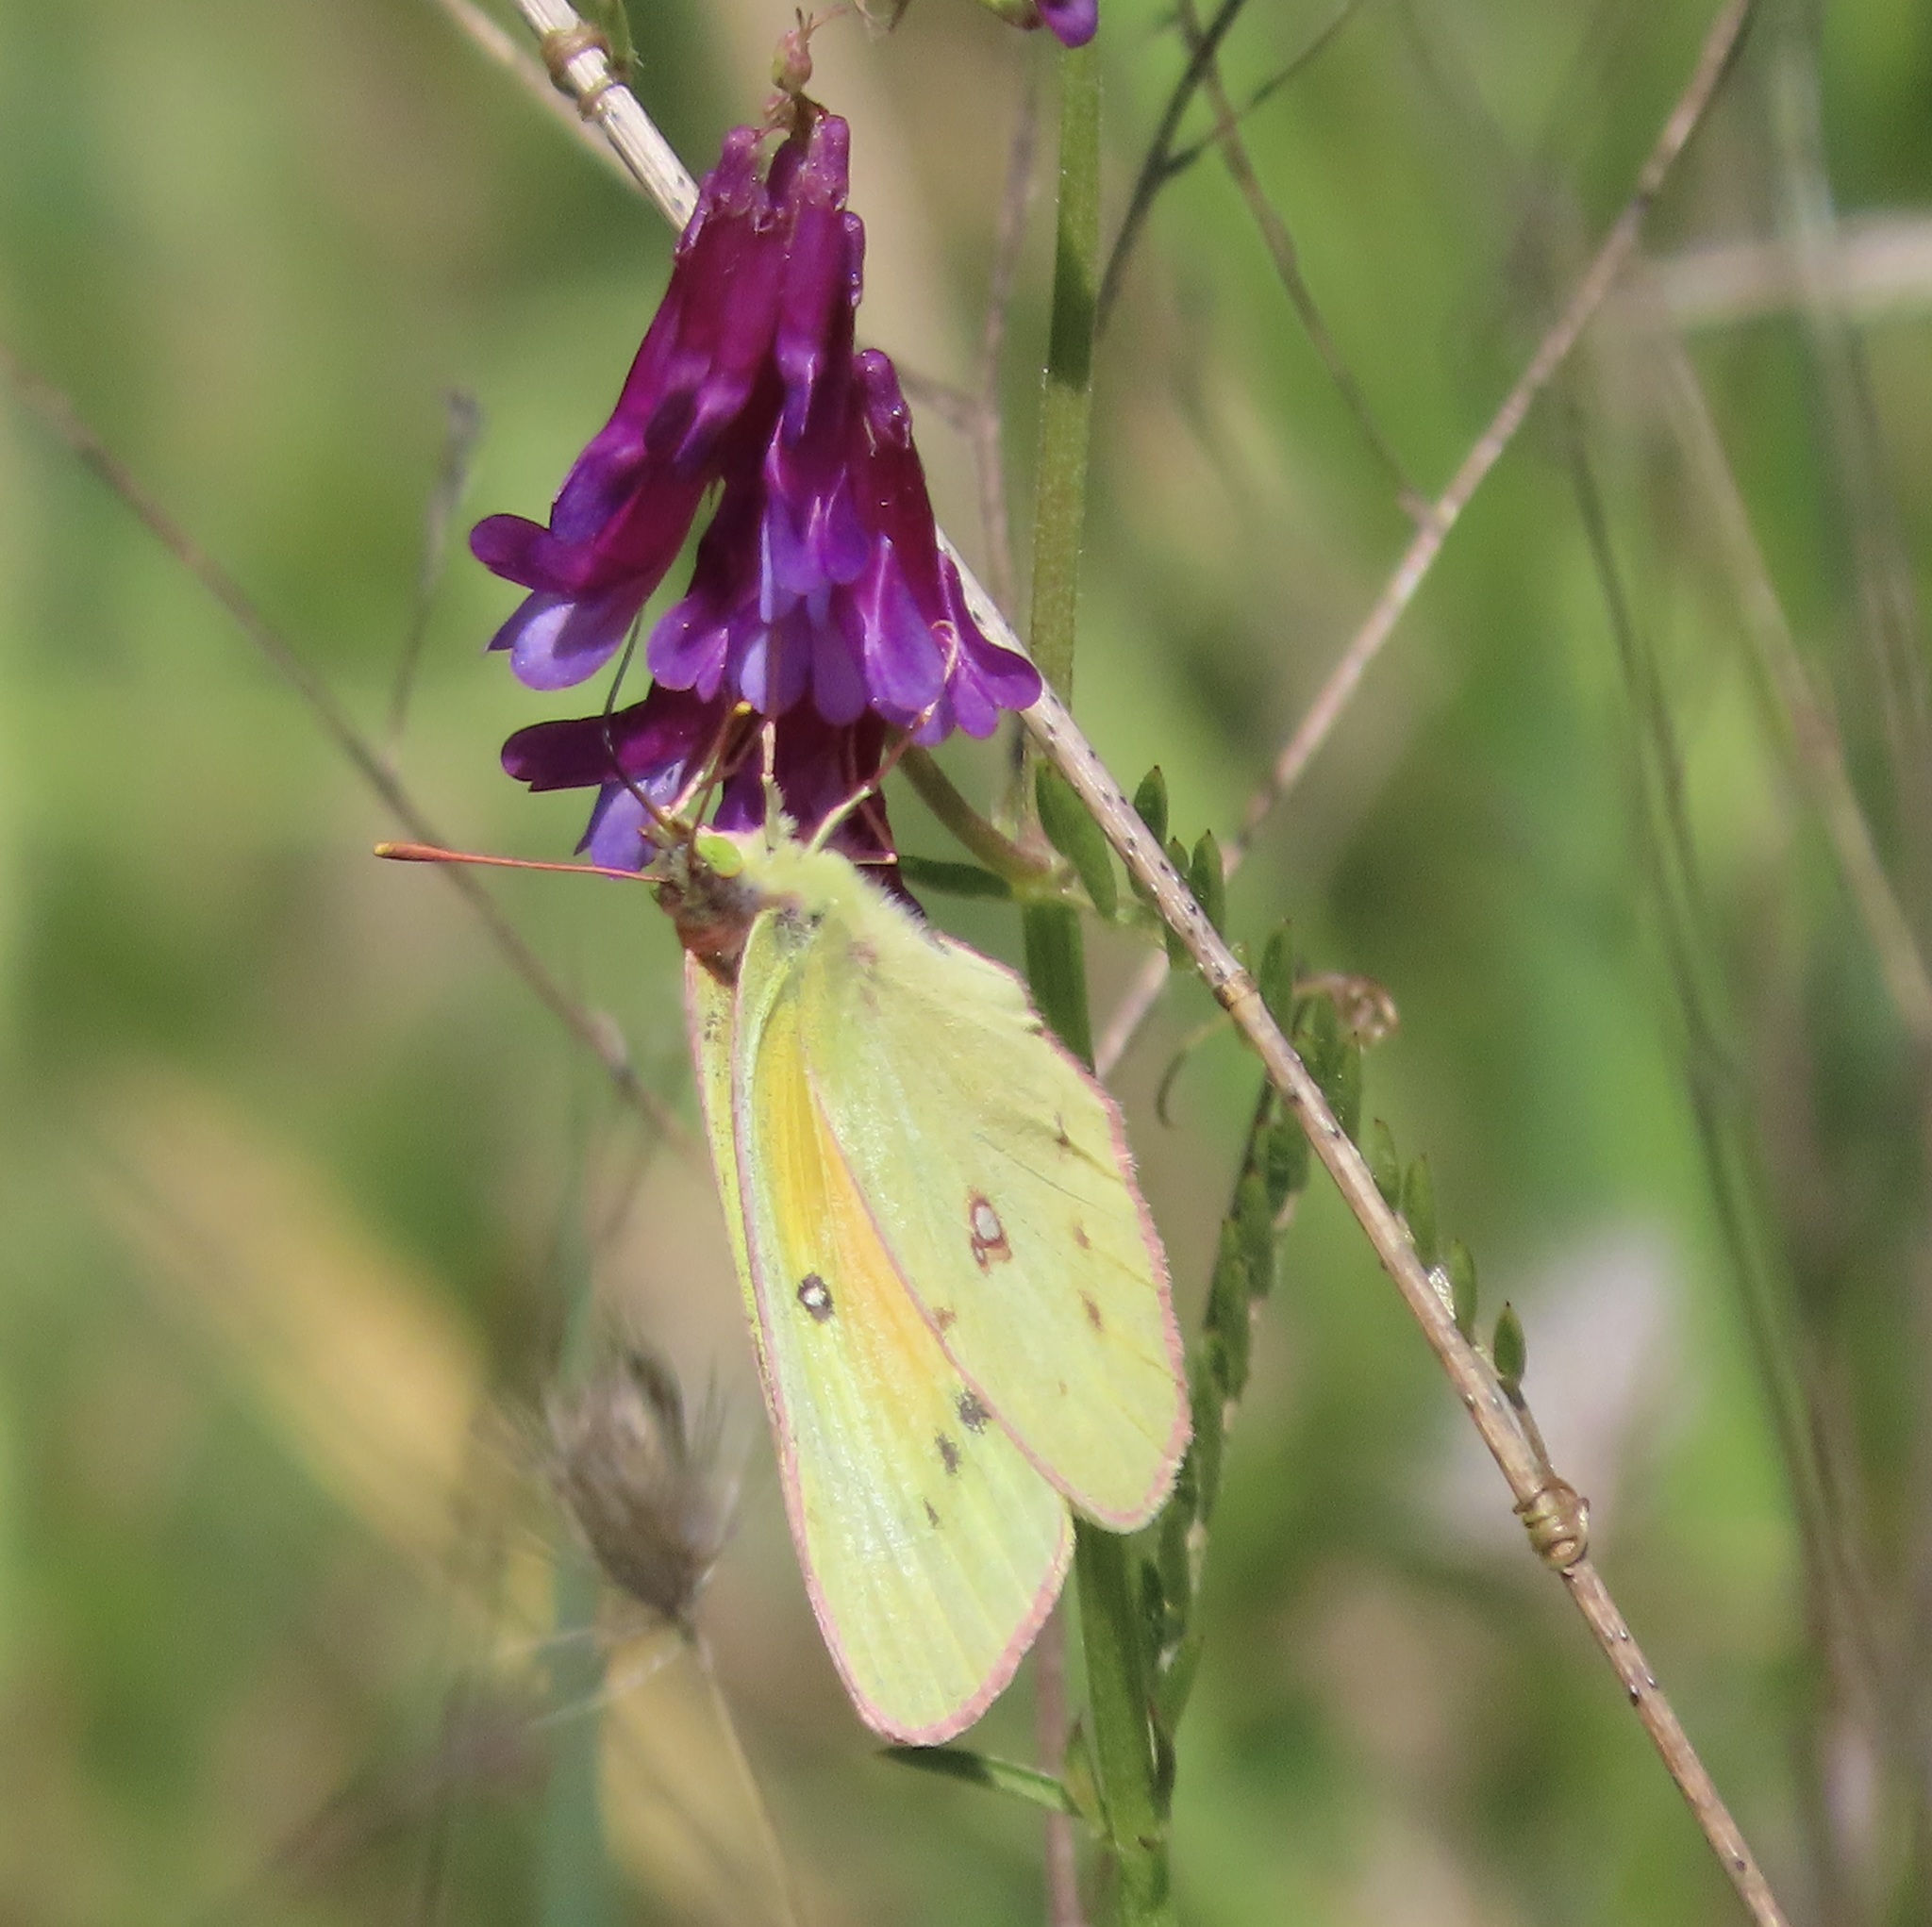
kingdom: Animalia
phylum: Arthropoda
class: Insecta
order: Lepidoptera
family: Pieridae
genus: Colias
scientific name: Colias eurytheme
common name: Alfalfa butterfly
